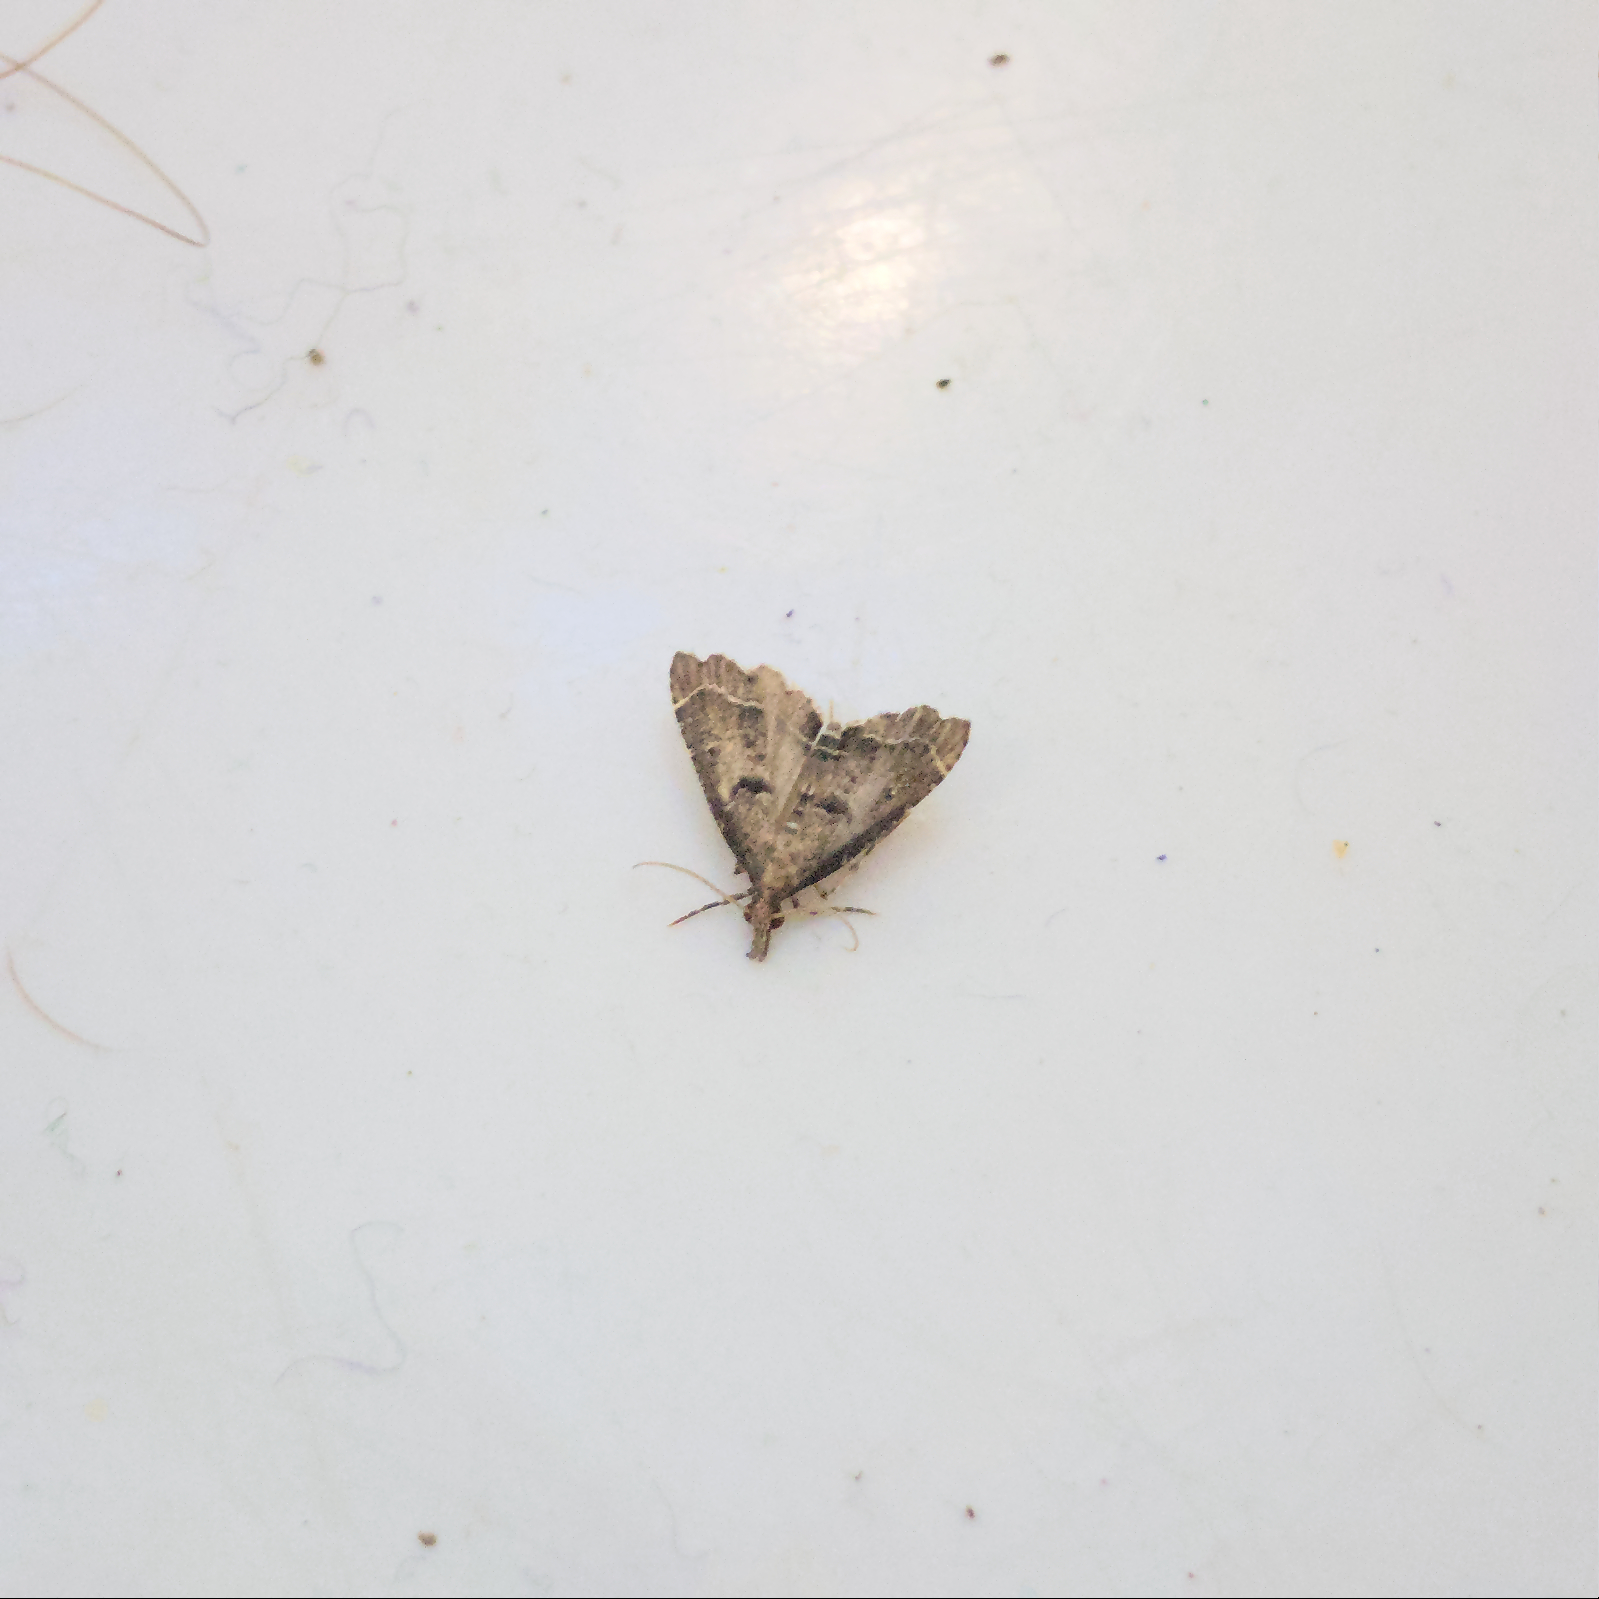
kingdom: Animalia
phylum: Arthropoda
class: Insecta
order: Lepidoptera
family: Crambidae
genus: Diplopseustis
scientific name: Diplopseustis perieresalis
